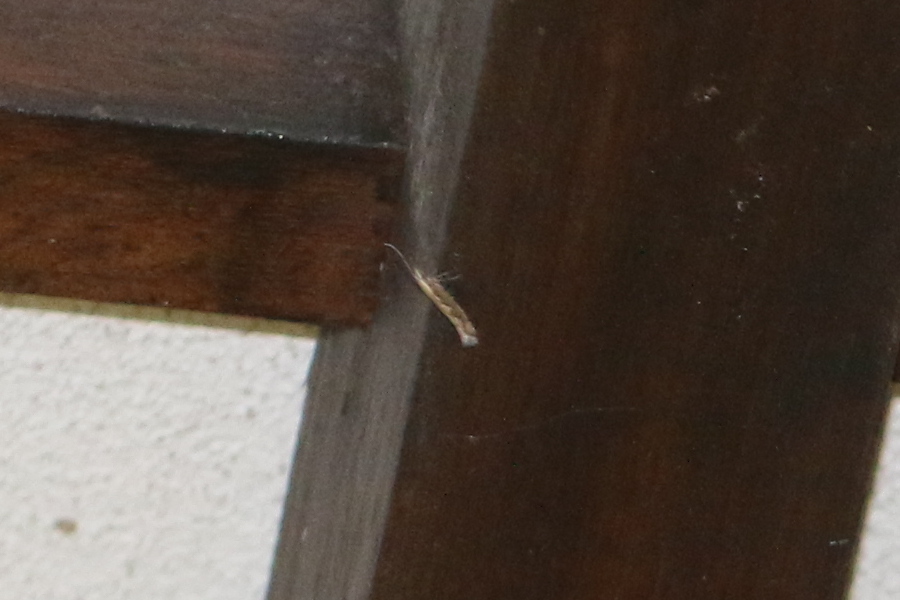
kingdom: Animalia
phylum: Arthropoda
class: Insecta
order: Lepidoptera
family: Plutellidae
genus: Plutella
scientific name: Plutella xylostella
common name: Diamond-back moth
